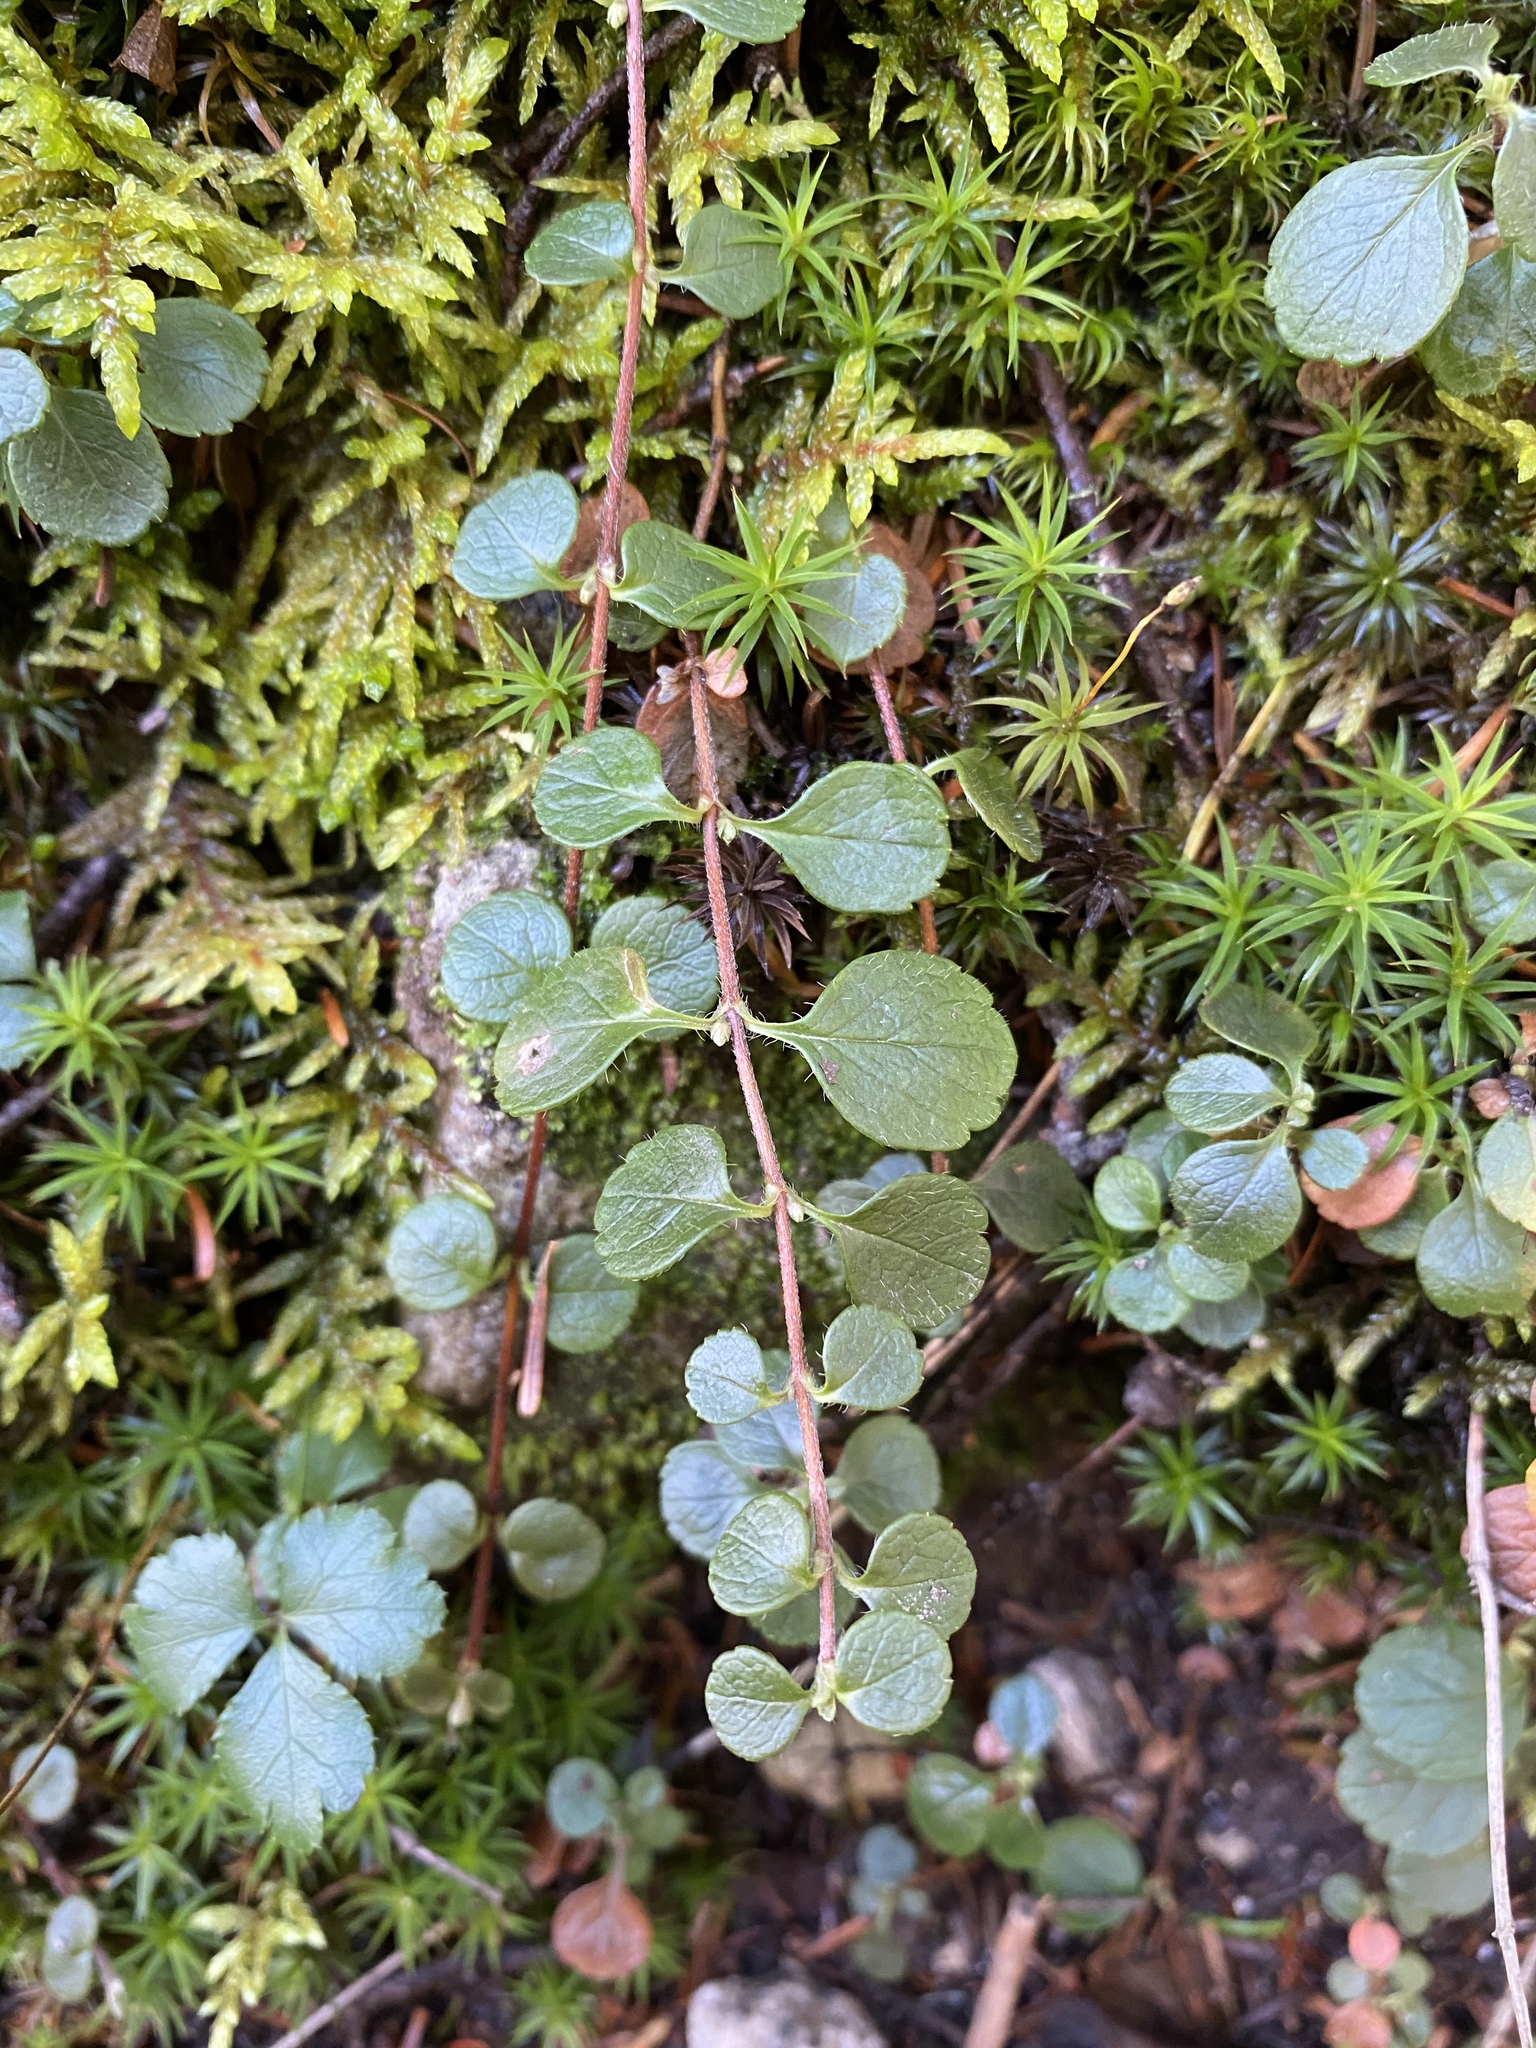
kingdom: Plantae
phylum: Tracheophyta
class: Magnoliopsida
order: Dipsacales
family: Caprifoliaceae
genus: Linnaea
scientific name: Linnaea borealis
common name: Twinflower
